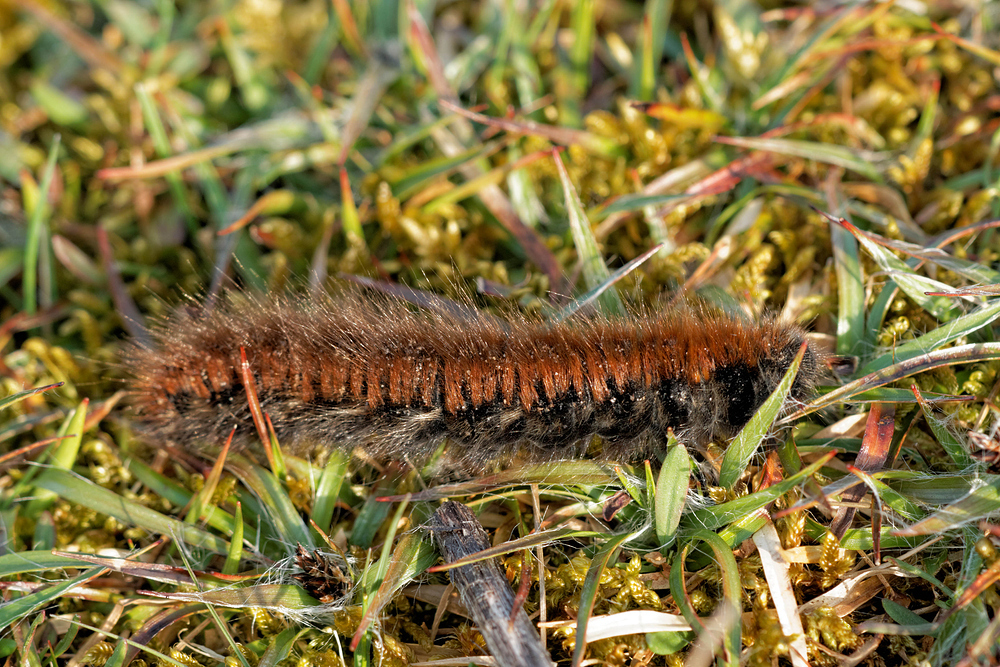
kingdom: Animalia
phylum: Arthropoda
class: Insecta
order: Lepidoptera
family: Lasiocampidae
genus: Macrothylacia
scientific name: Macrothylacia rubi
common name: Fox moth
